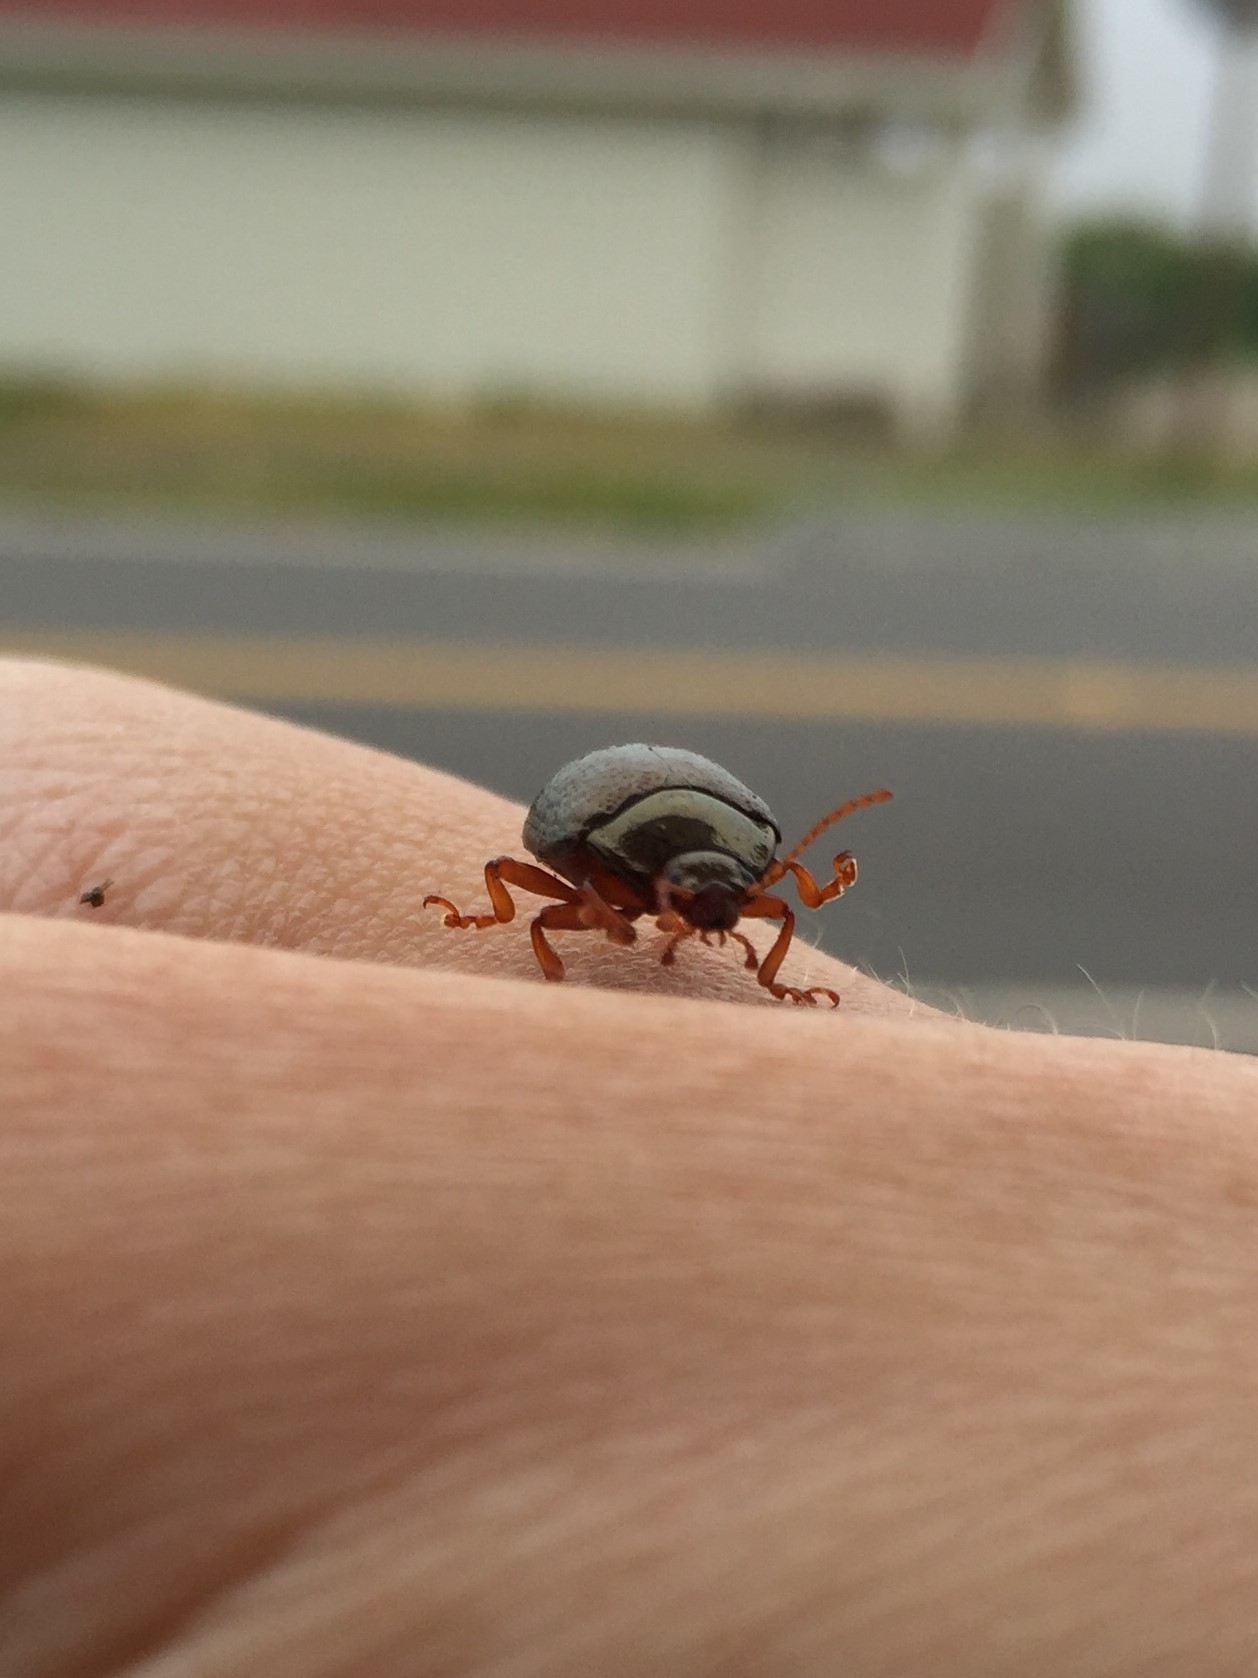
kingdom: Animalia
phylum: Arthropoda
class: Insecta
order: Coleoptera
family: Chrysomelidae
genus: Chrysolina
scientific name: Chrysolina bankii
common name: Leaf beetle
